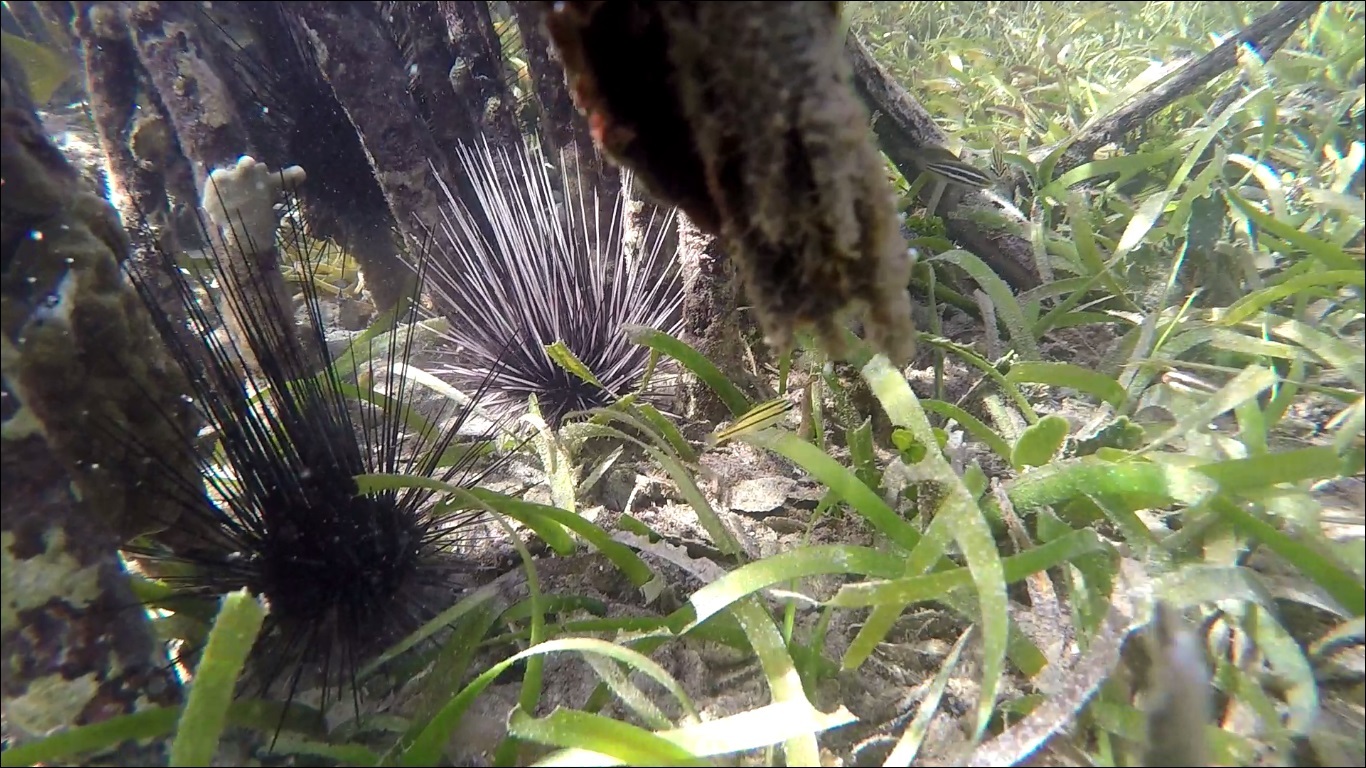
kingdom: Animalia
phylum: Echinodermata
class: Echinoidea
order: Diadematoida
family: Diadematidae
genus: Diadema
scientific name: Diadema antillarum
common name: Spiny urchin
